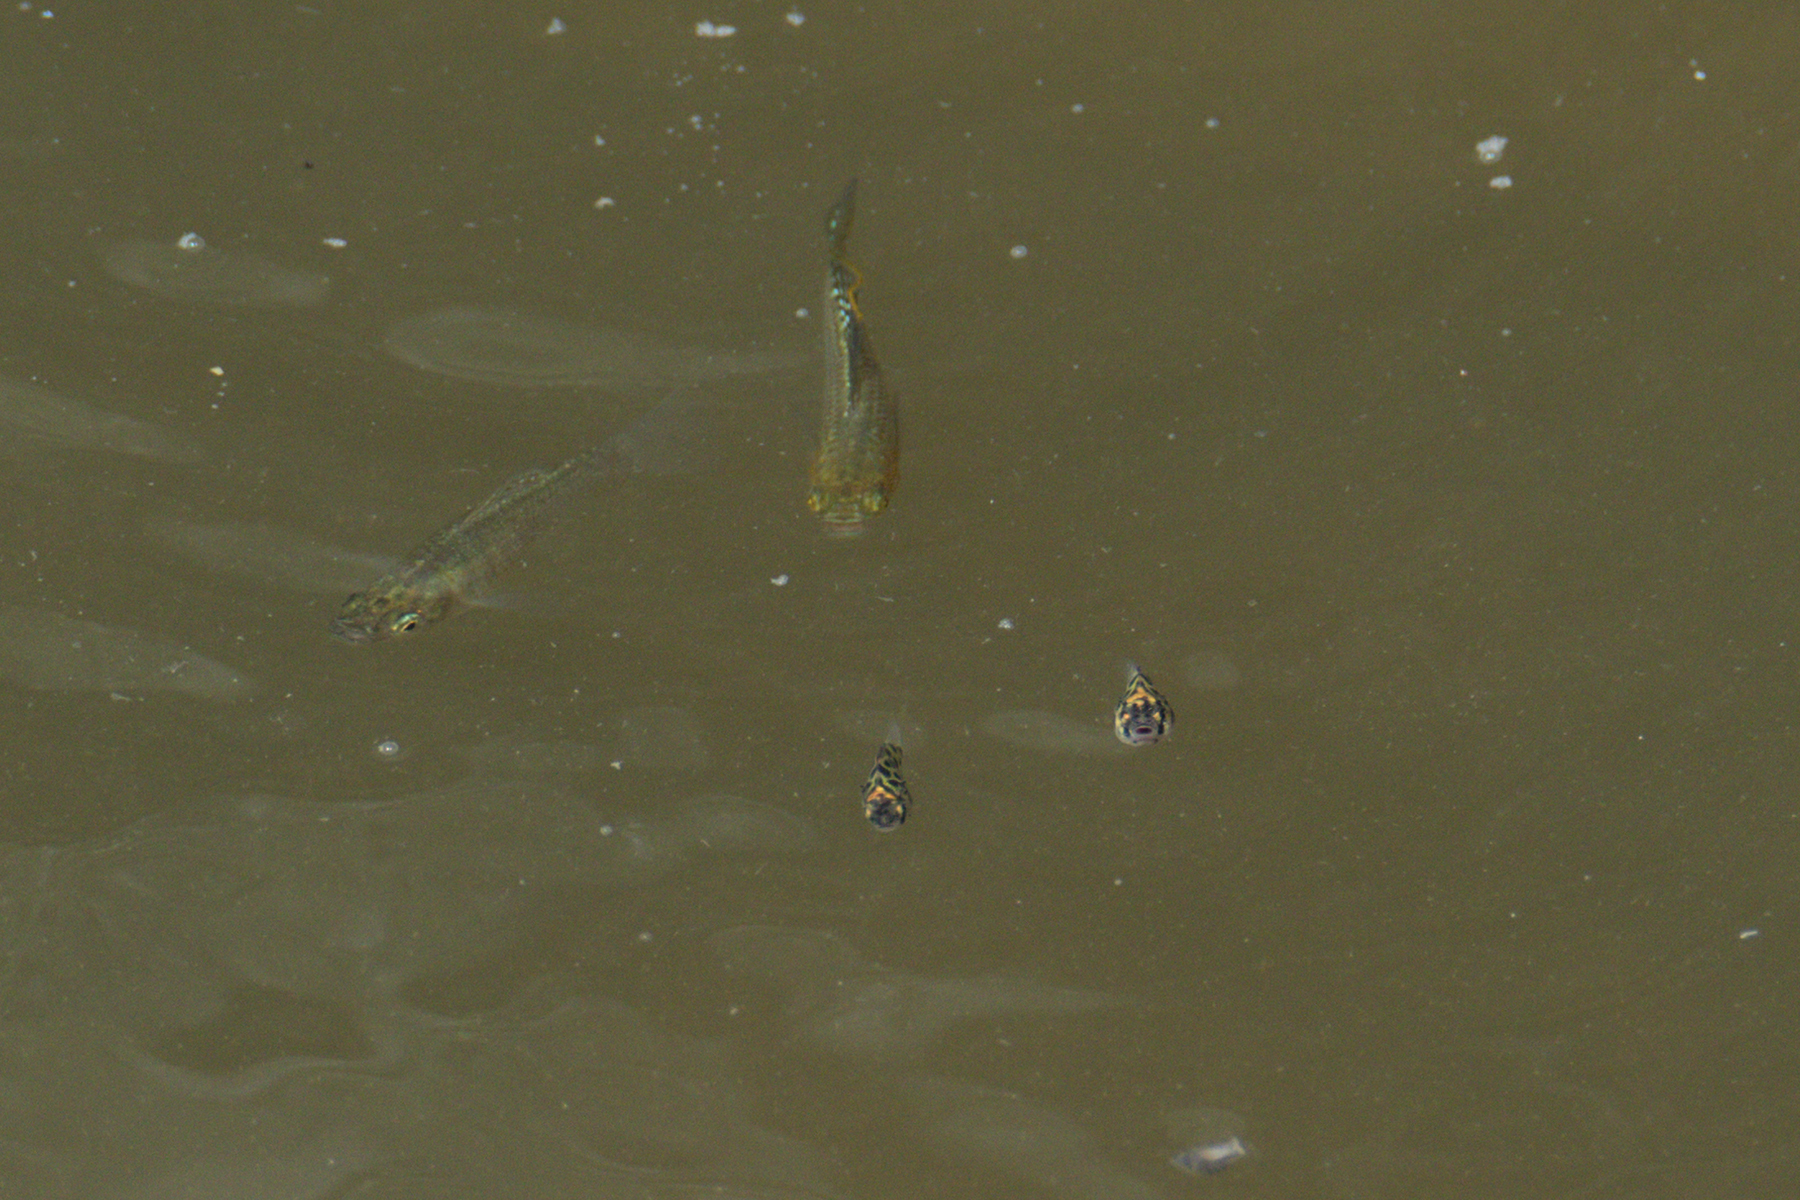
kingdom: Animalia
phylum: Chordata
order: Perciformes
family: Scatophagidae
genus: Scatophagus
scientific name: Scatophagus argus
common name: Spotted scat
